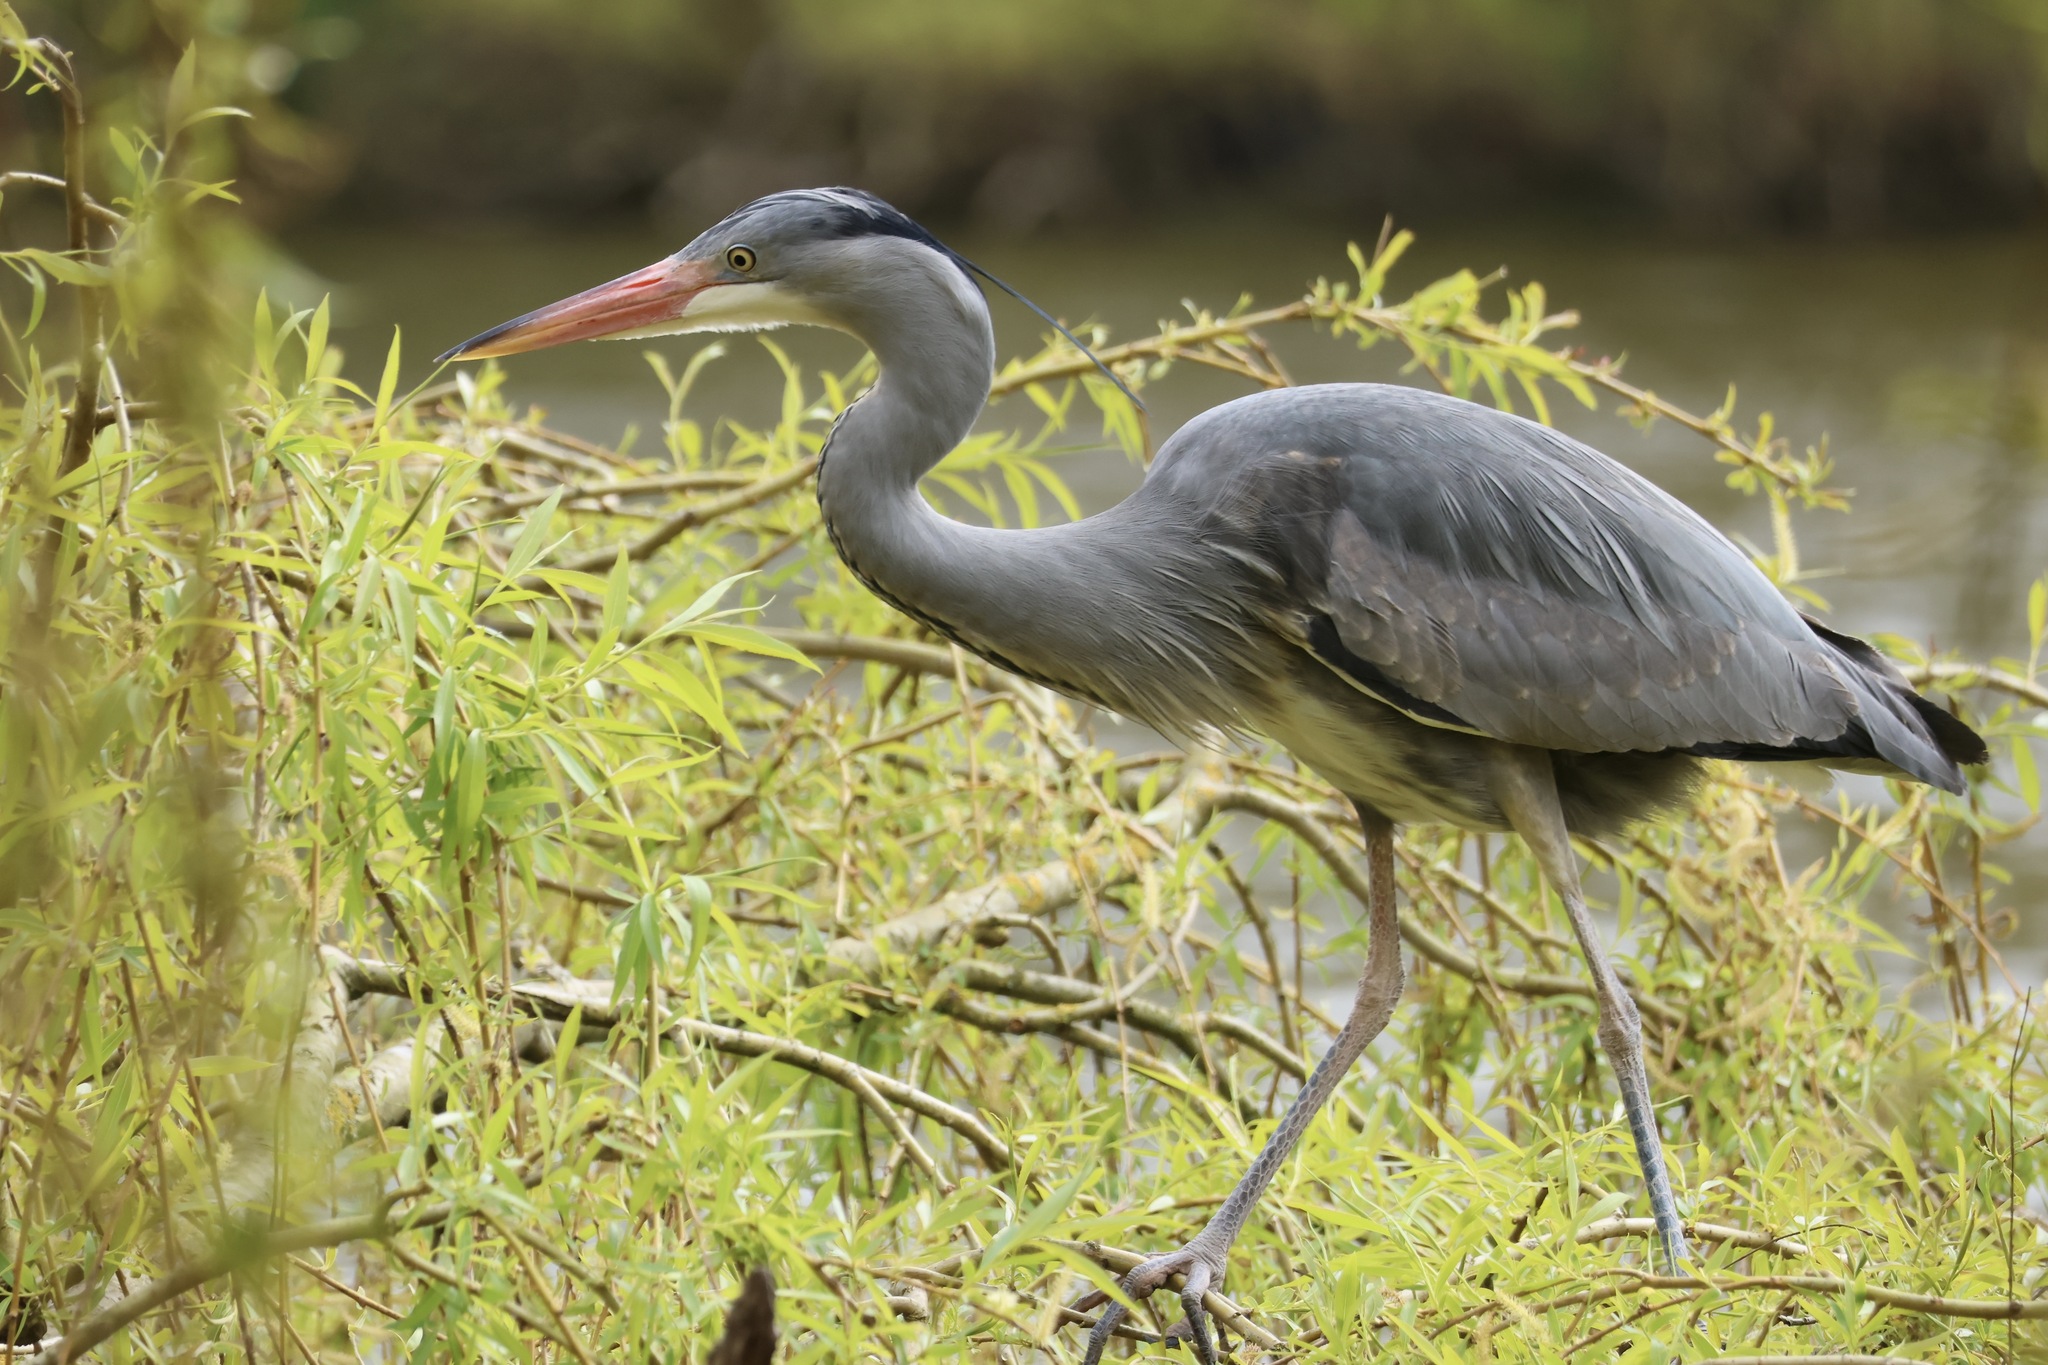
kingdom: Animalia
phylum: Chordata
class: Aves
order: Pelecaniformes
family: Ardeidae
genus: Ardea
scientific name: Ardea cinerea
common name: Grey heron
